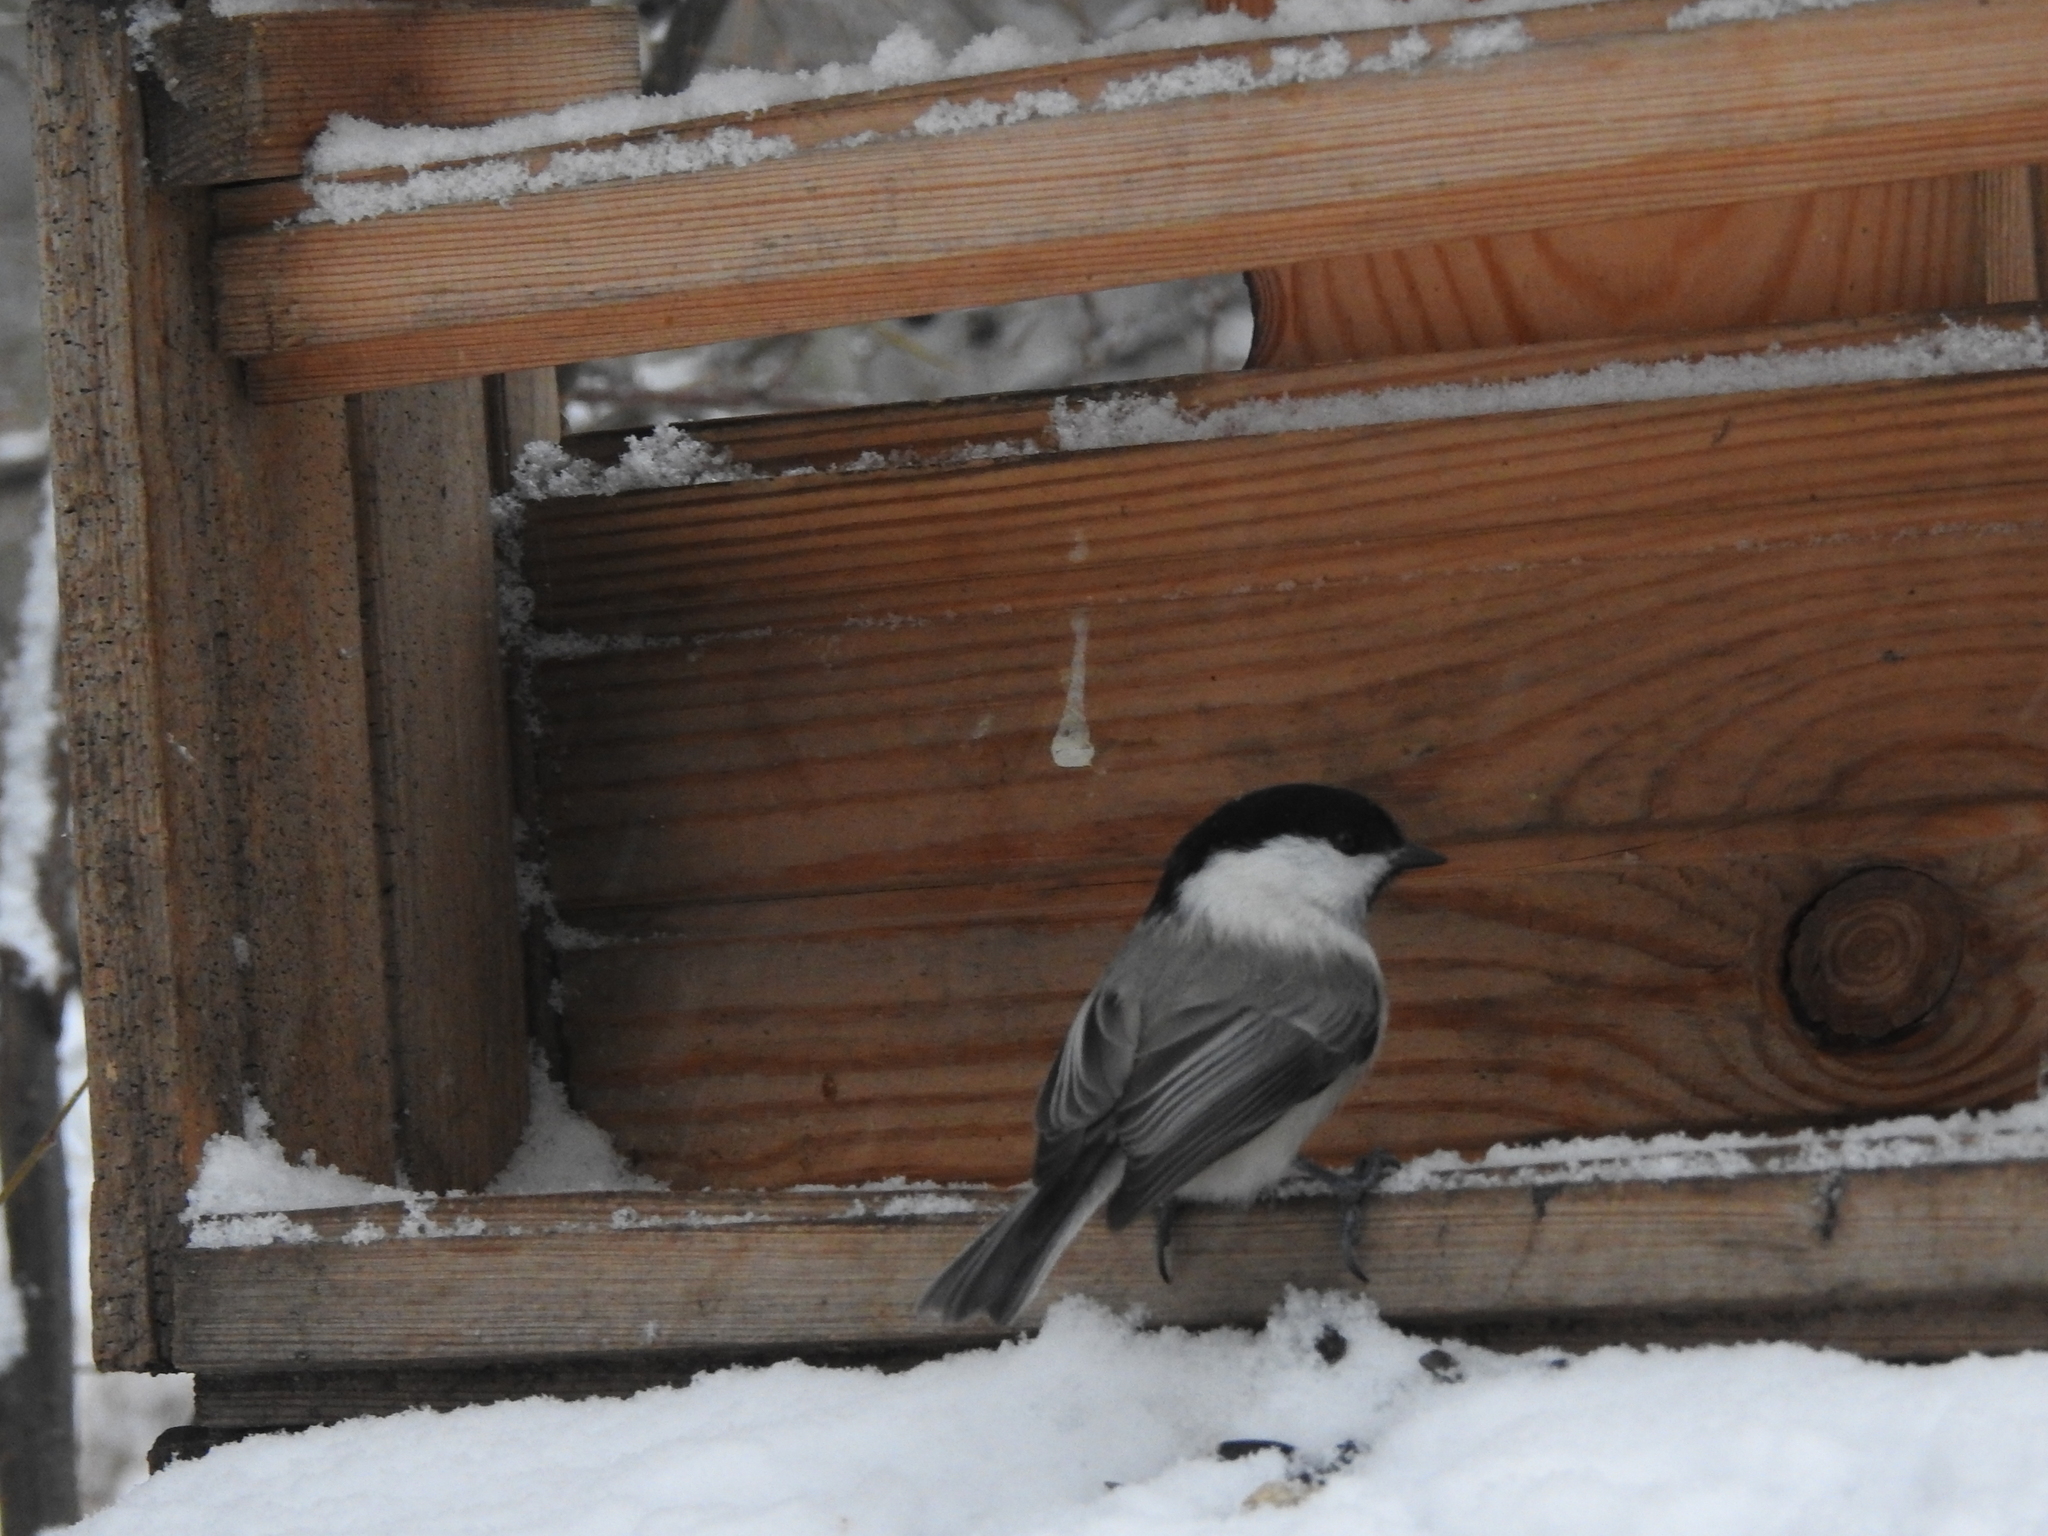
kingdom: Animalia
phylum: Chordata
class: Aves
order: Passeriformes
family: Paridae
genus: Poecile
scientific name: Poecile montanus
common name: Willow tit
